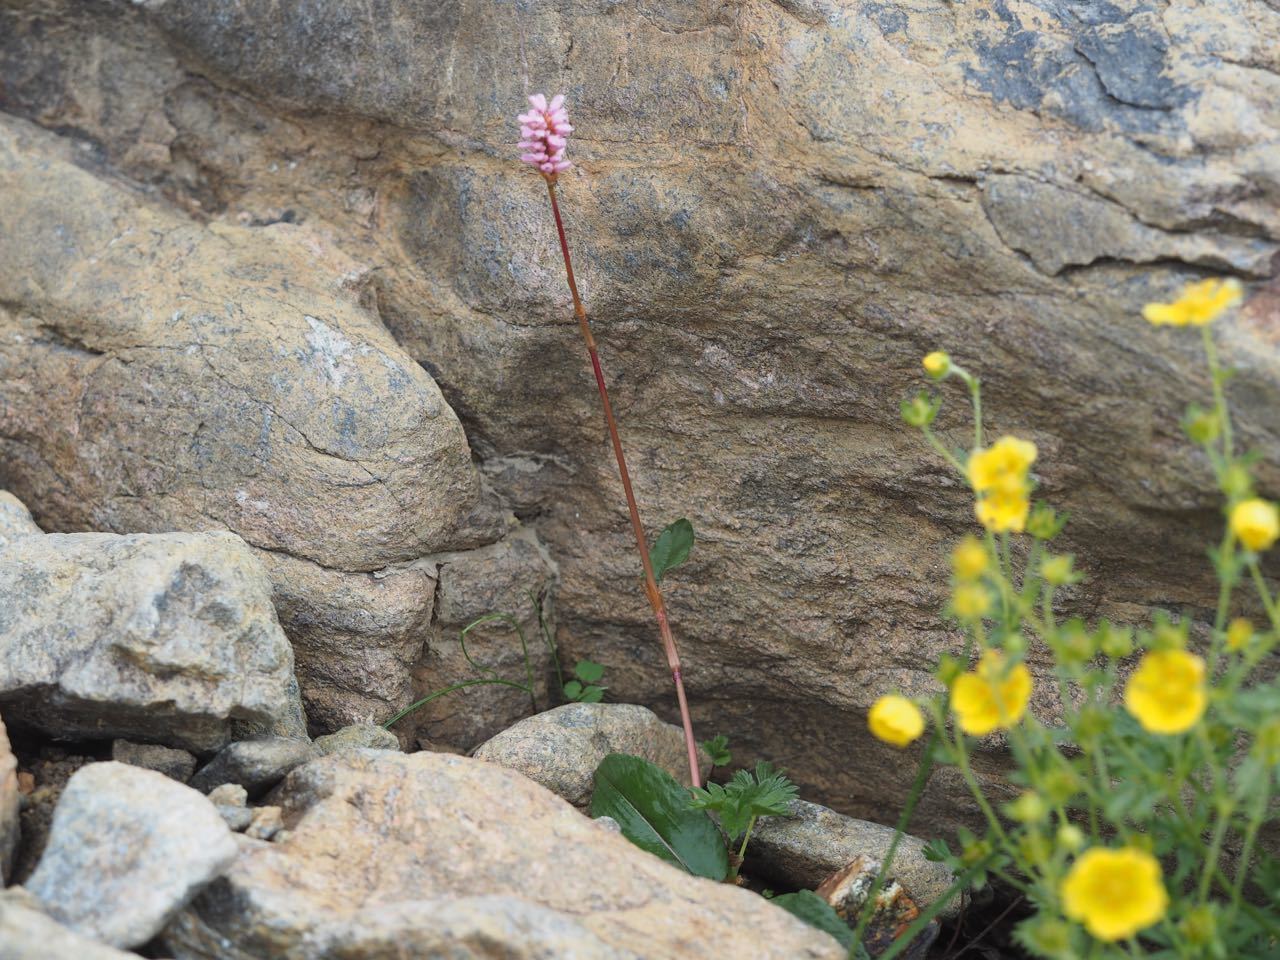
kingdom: Plantae
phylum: Tracheophyta
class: Magnoliopsida
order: Caryophyllales
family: Polygonaceae
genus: Bistorta
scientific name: Bistorta hayachinensis
